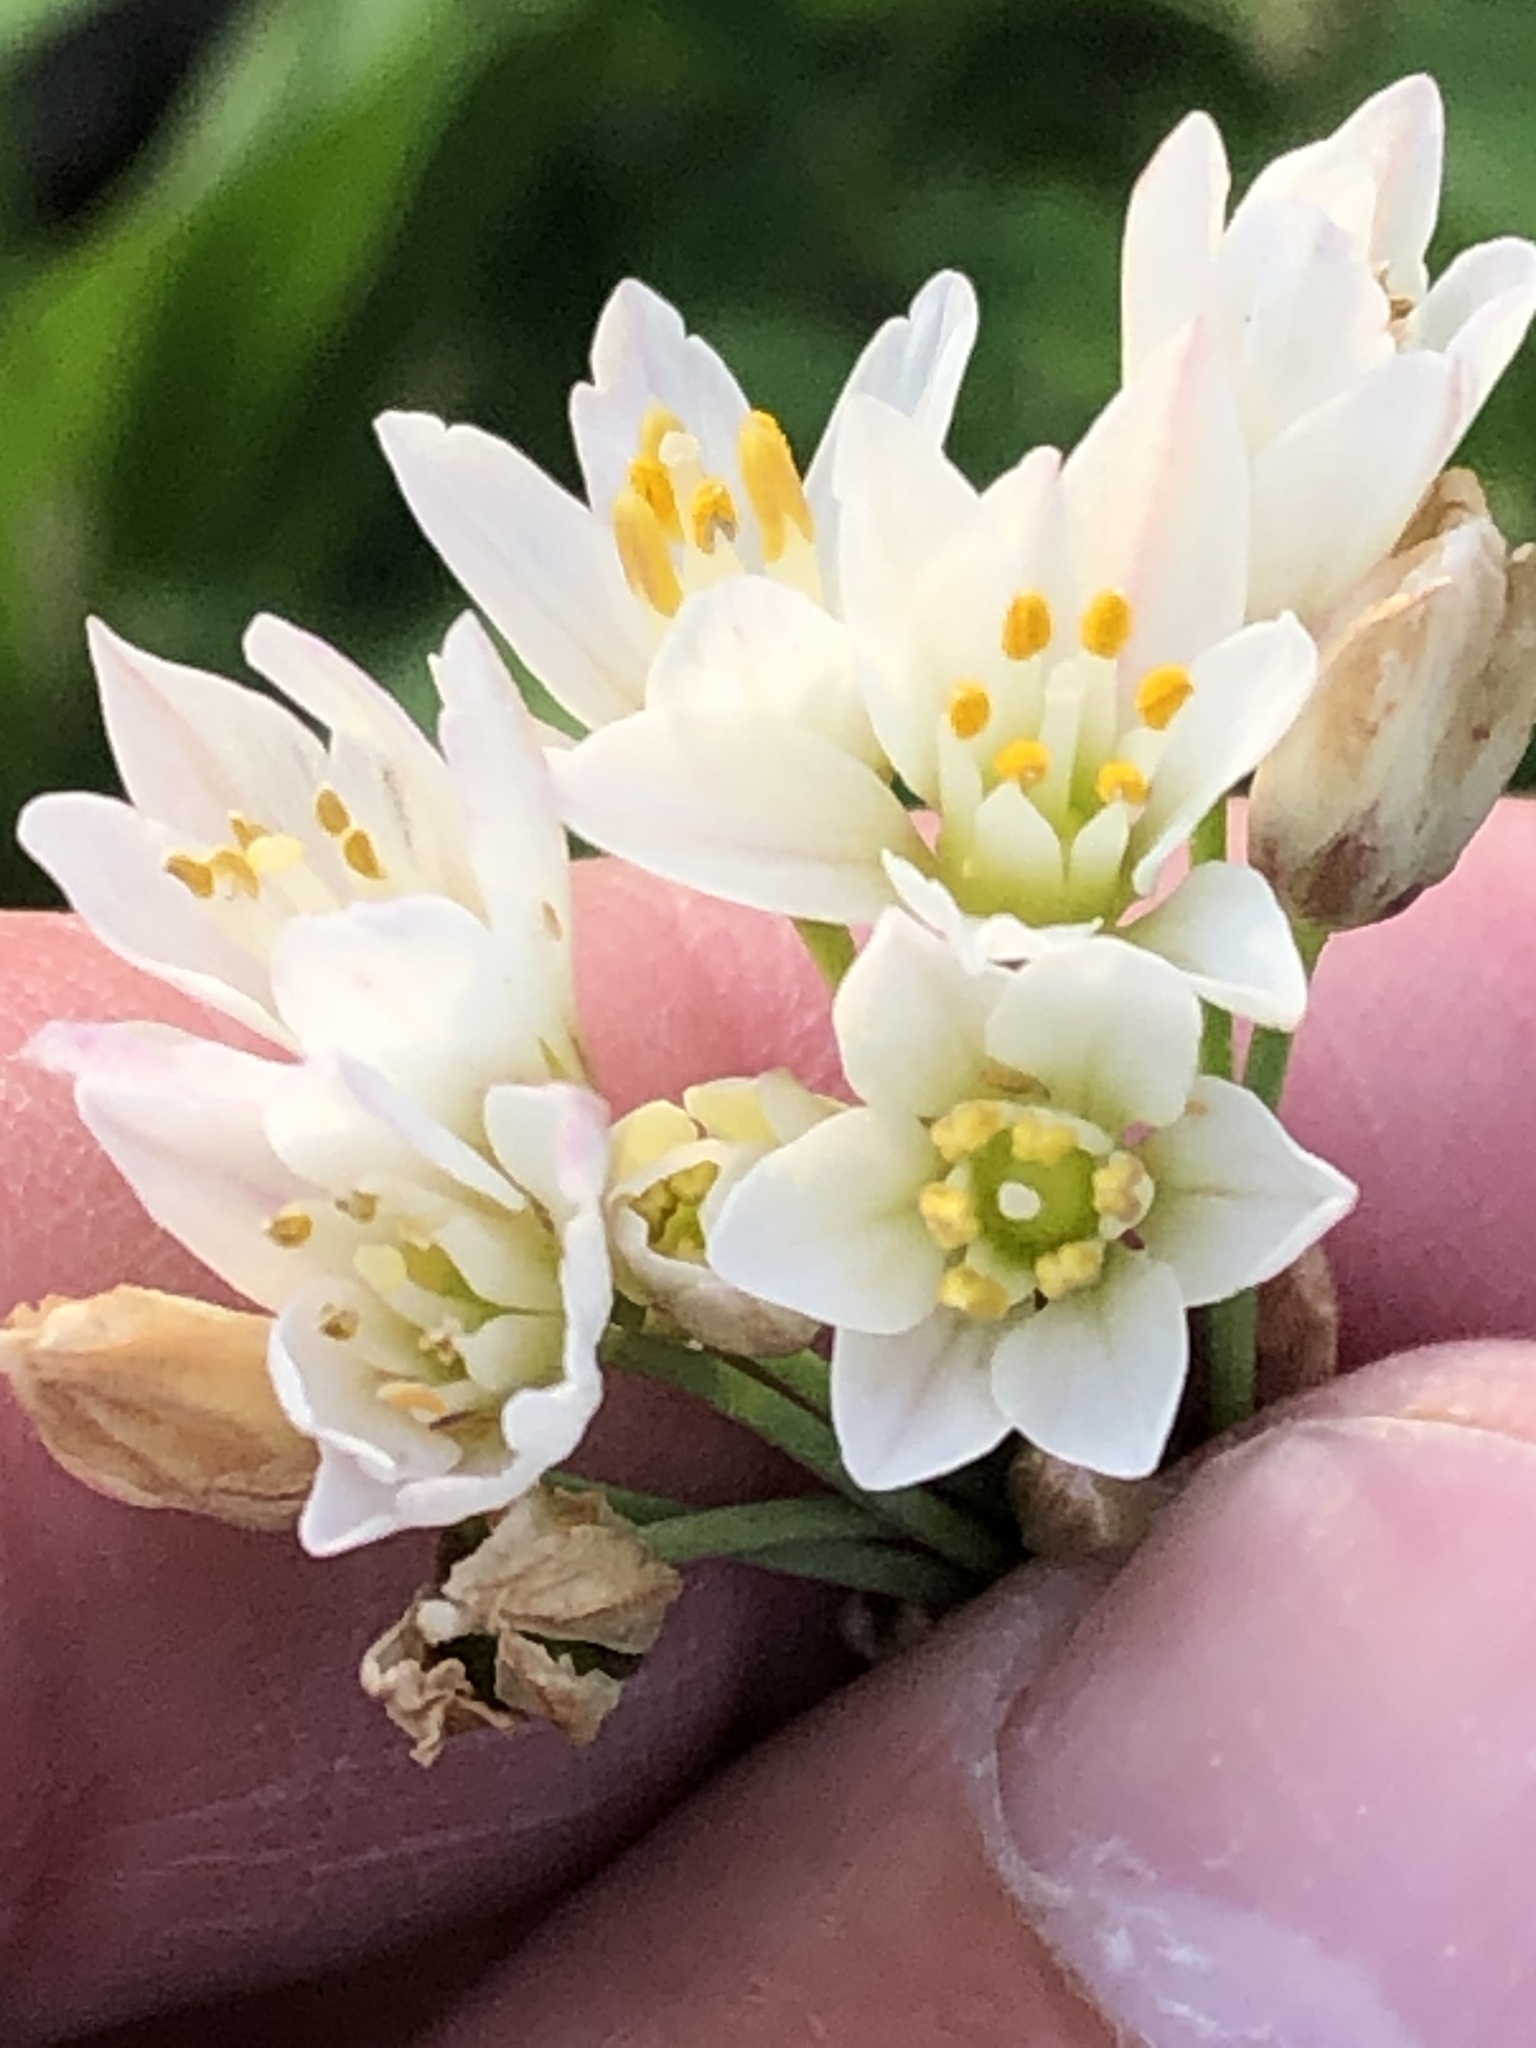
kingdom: Plantae
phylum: Tracheophyta
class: Liliopsida
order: Asparagales
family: Amaryllidaceae
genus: Nothoscordum
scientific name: Nothoscordum gracile
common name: Slender false garlic
